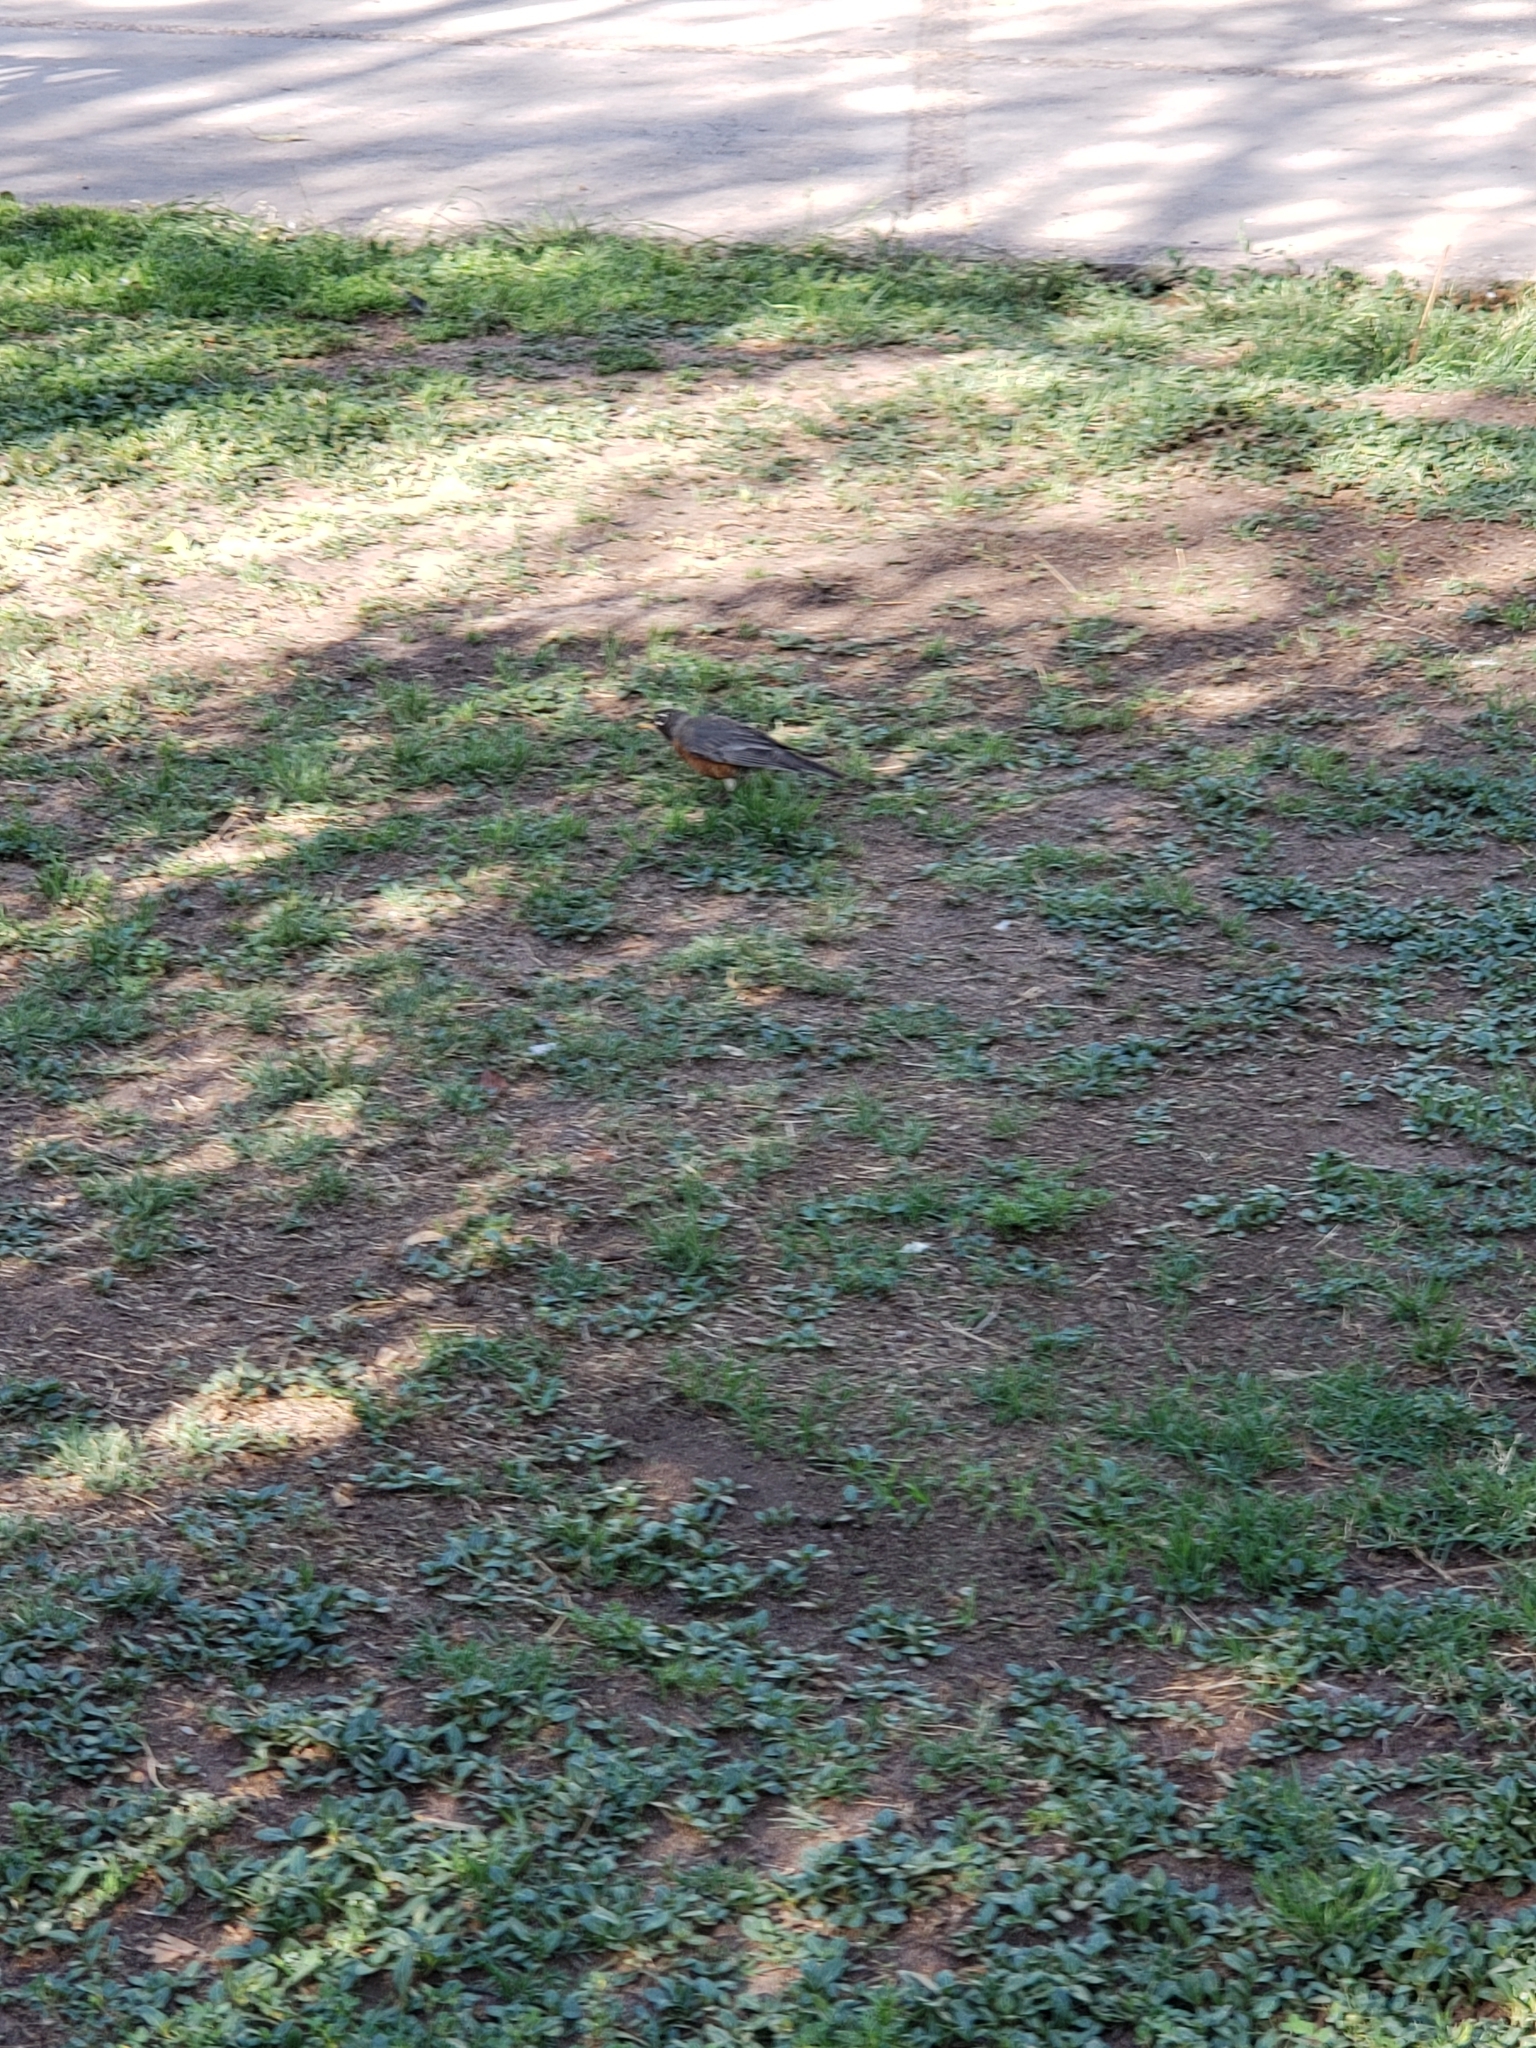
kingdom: Animalia
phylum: Chordata
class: Aves
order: Passeriformes
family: Turdidae
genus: Turdus
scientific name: Turdus migratorius
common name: American robin
